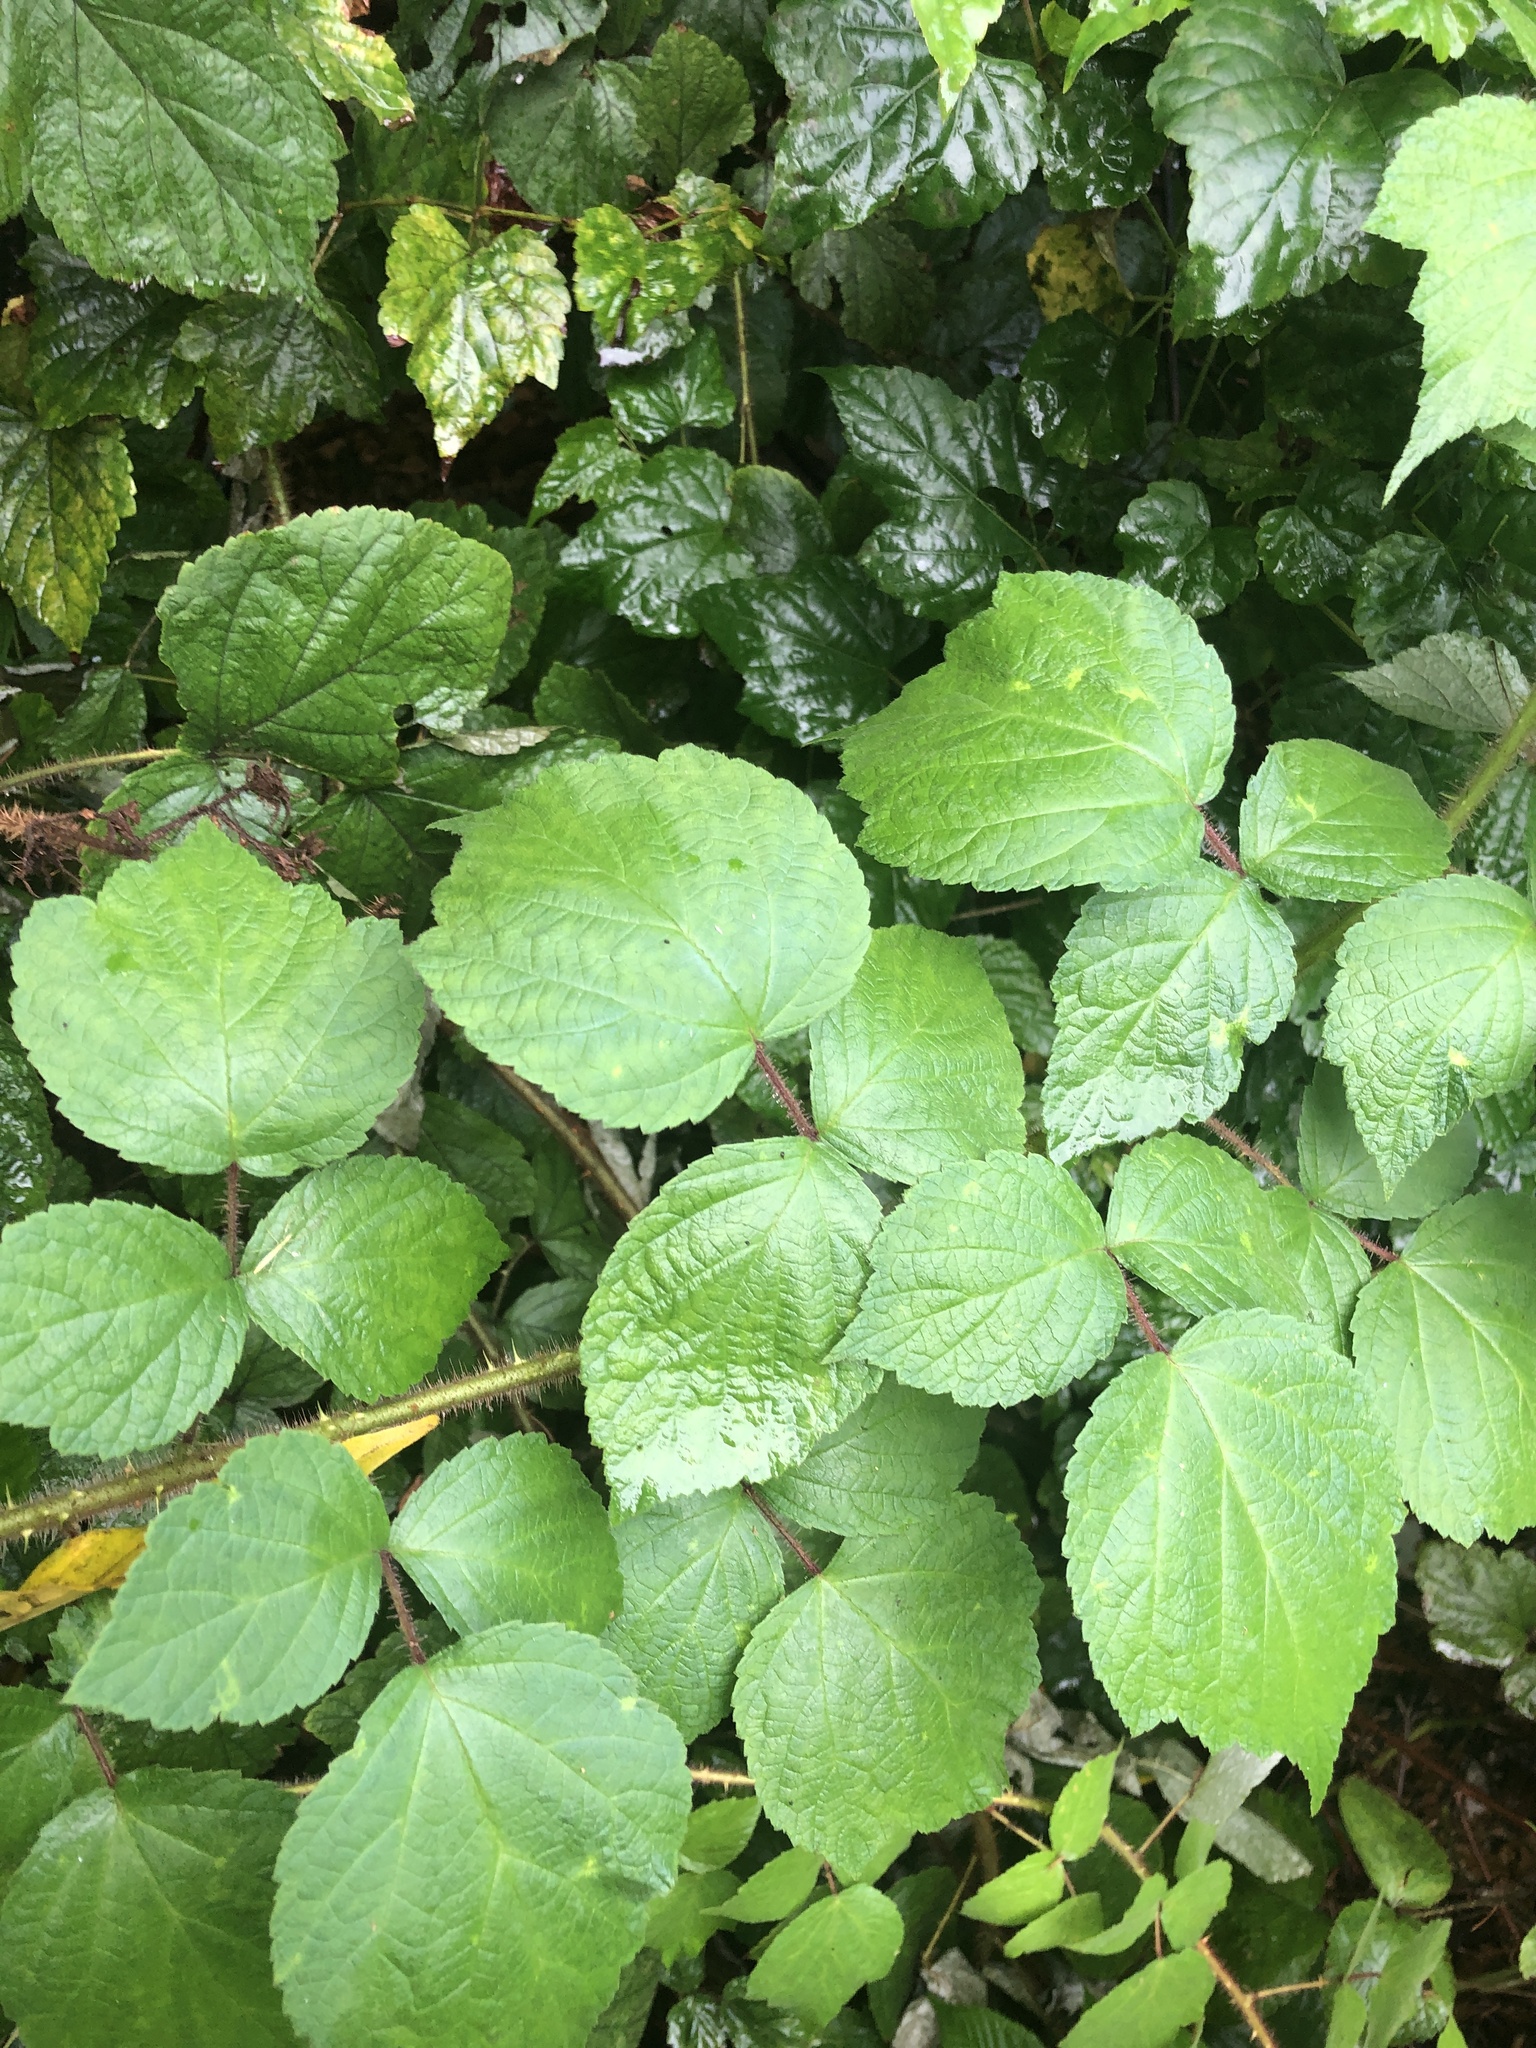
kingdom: Plantae
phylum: Tracheophyta
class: Magnoliopsida
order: Rosales
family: Rosaceae
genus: Rubus
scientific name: Rubus phoenicolasius
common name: Japanese wineberry
